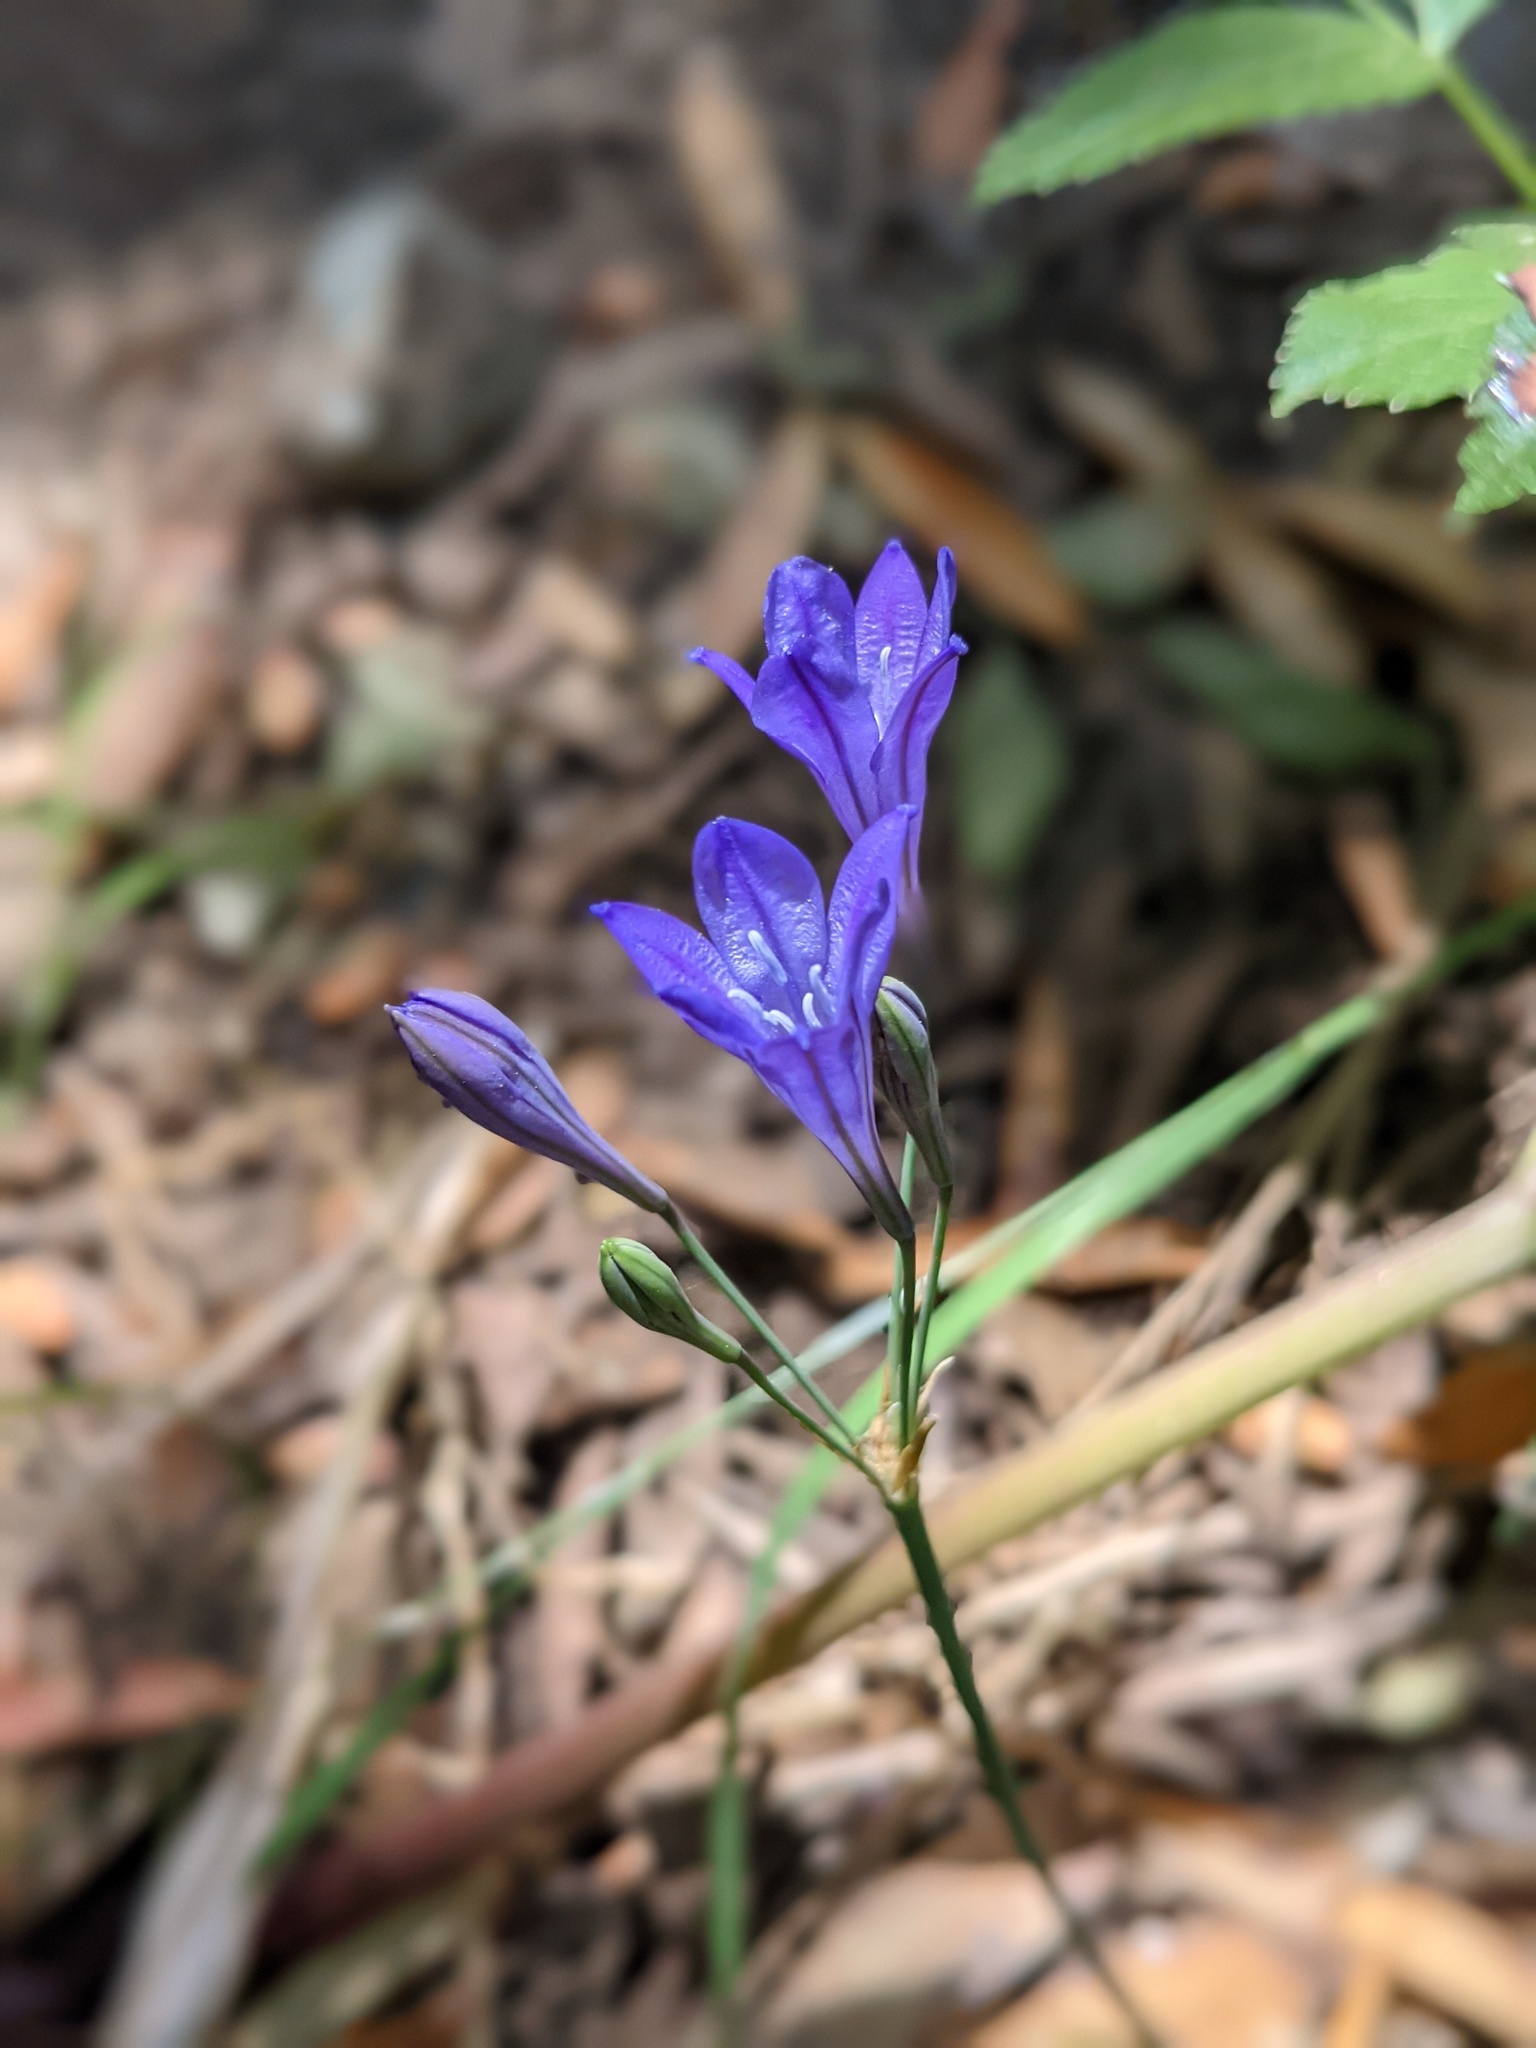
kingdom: Plantae
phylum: Tracheophyta
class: Liliopsida
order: Asparagales
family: Asparagaceae
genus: Triteleia
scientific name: Triteleia laxa
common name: Triplet-lily
